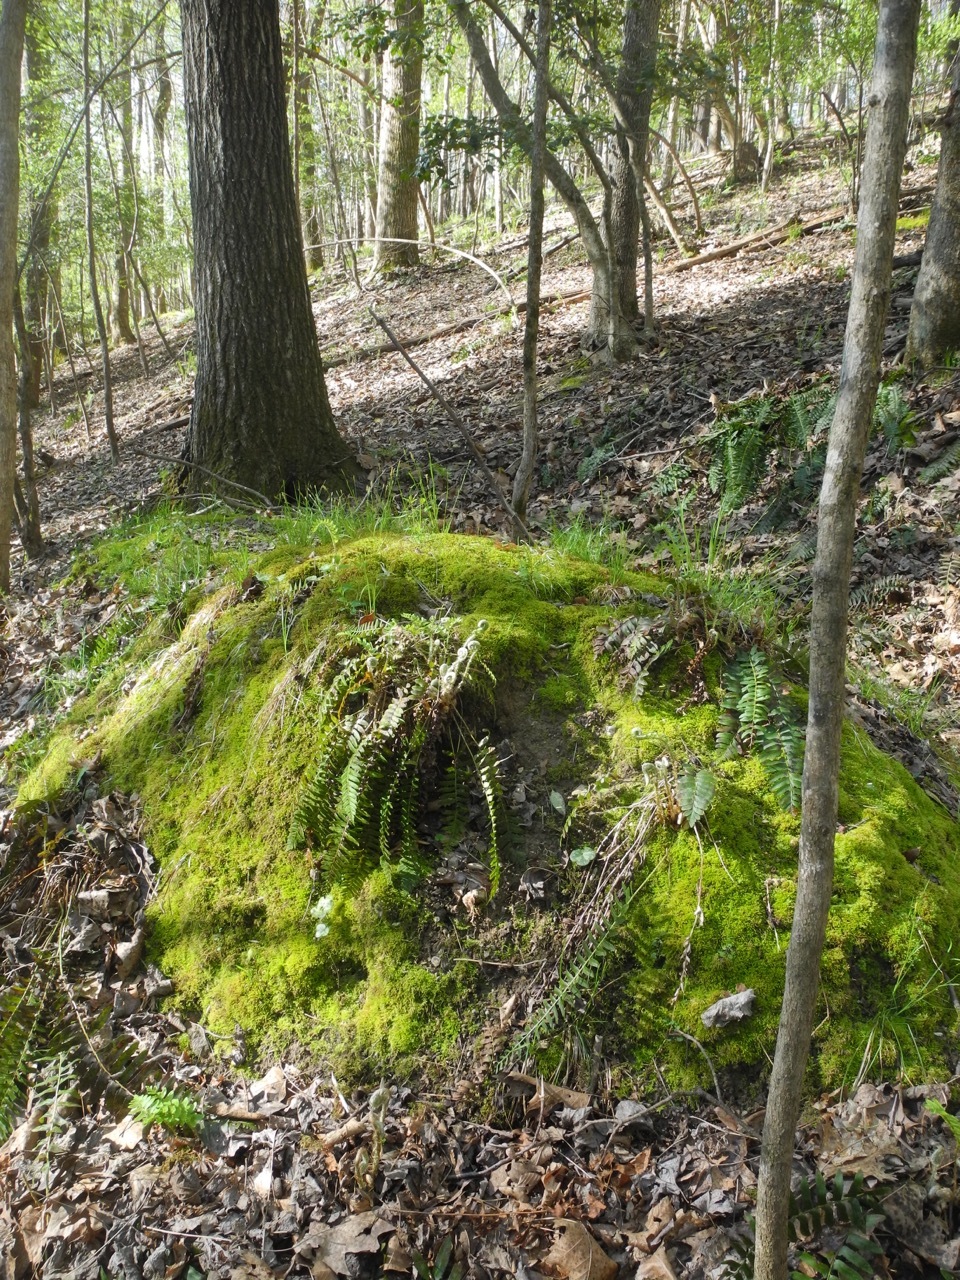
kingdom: Plantae
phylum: Tracheophyta
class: Magnoliopsida
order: Ranunculales
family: Ranunculaceae
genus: Hepatica
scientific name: Hepatica americana
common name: American hepatica
